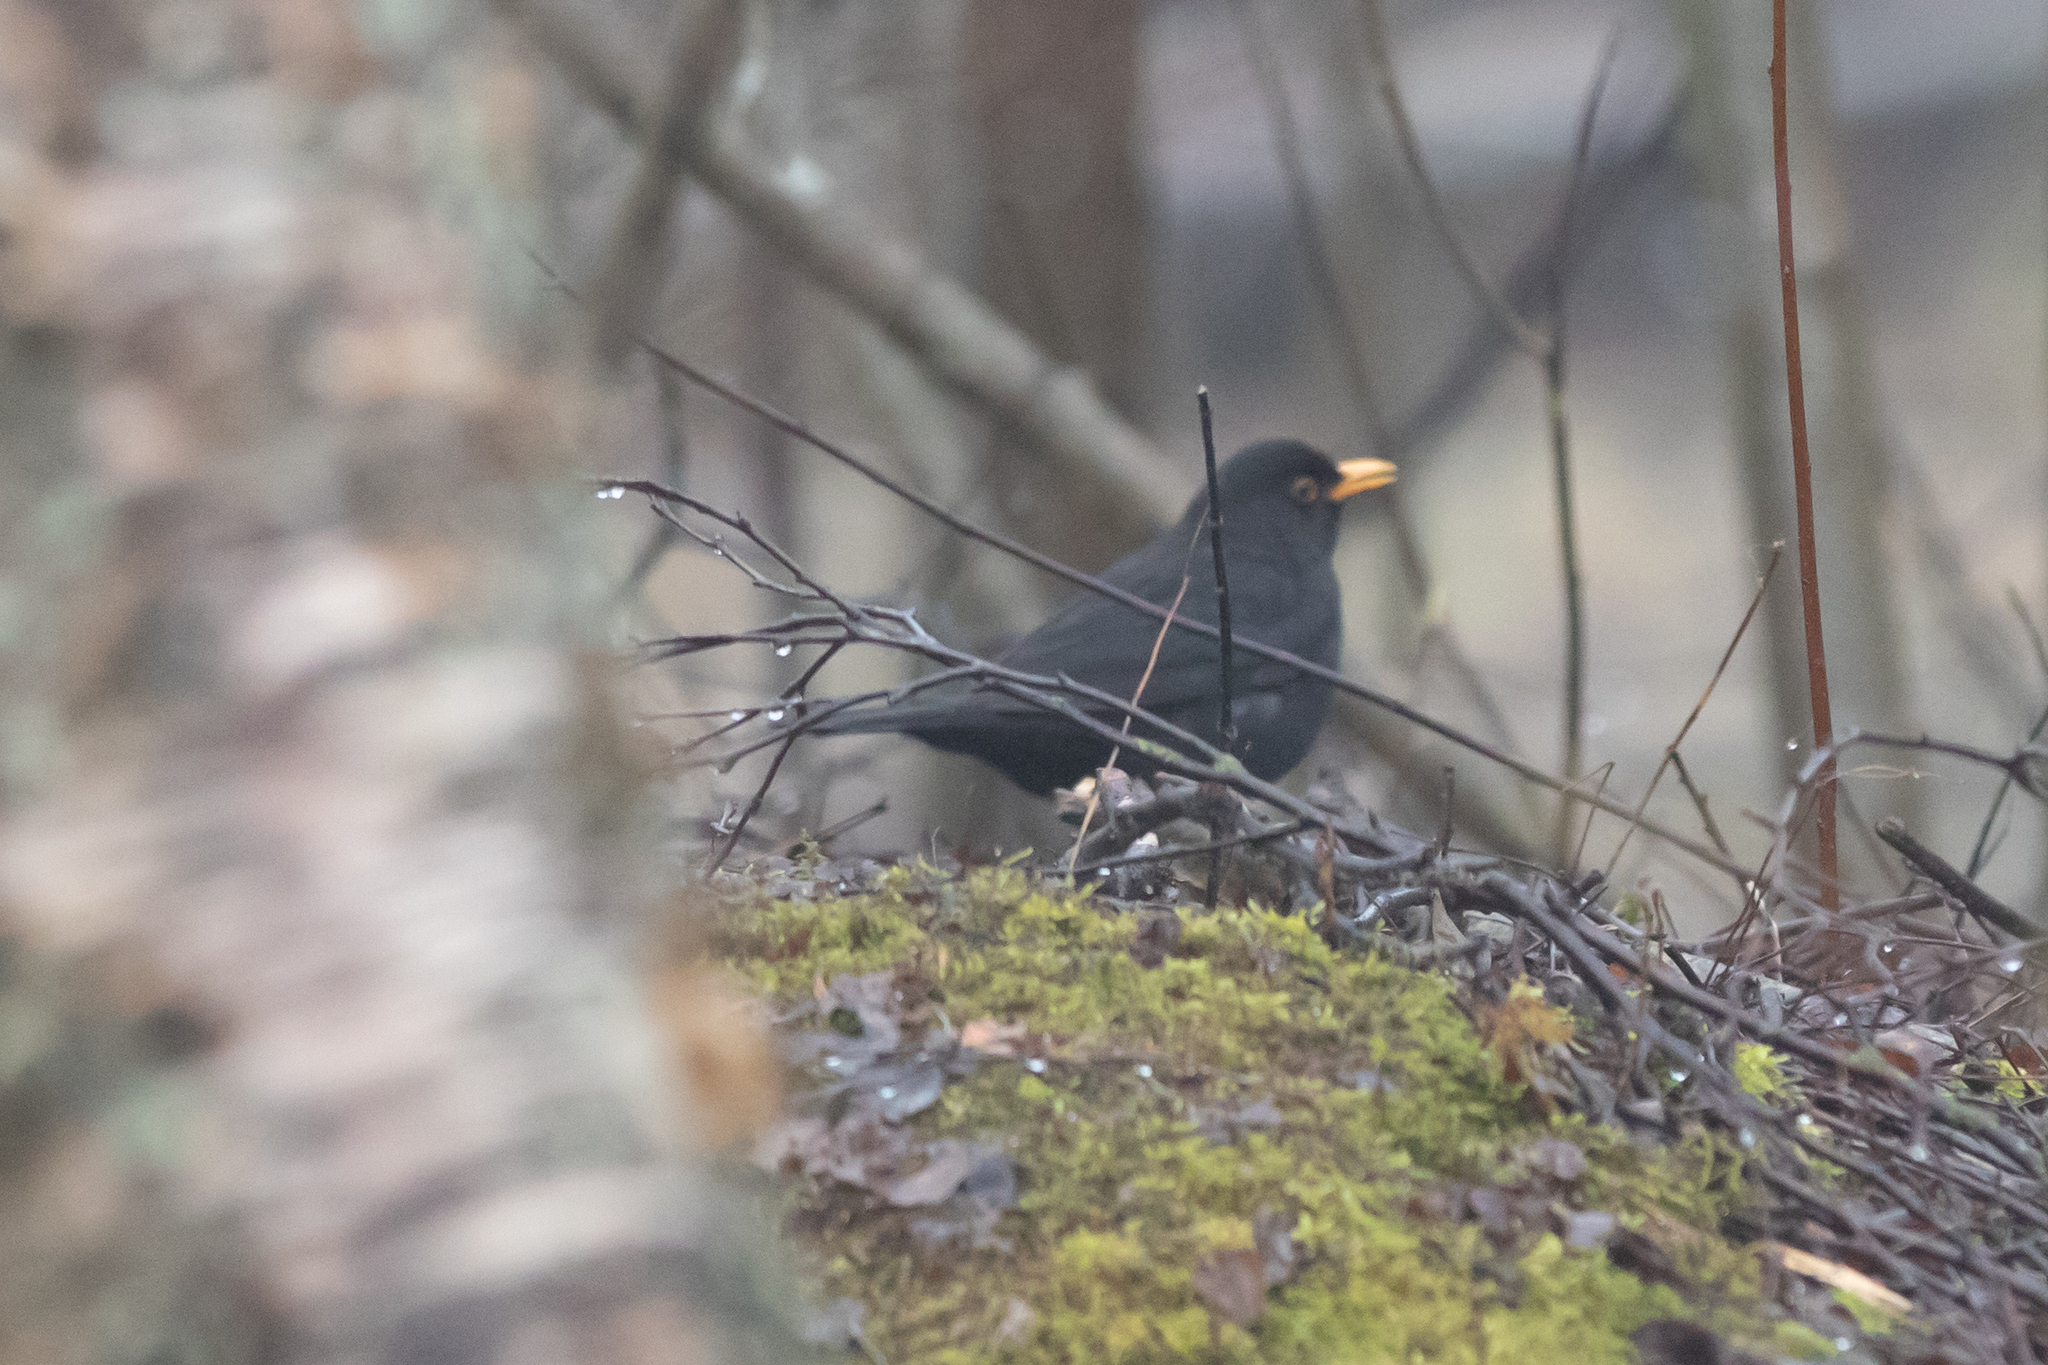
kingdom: Animalia
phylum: Chordata
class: Aves
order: Passeriformes
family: Turdidae
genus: Turdus
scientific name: Turdus merula
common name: Common blackbird
